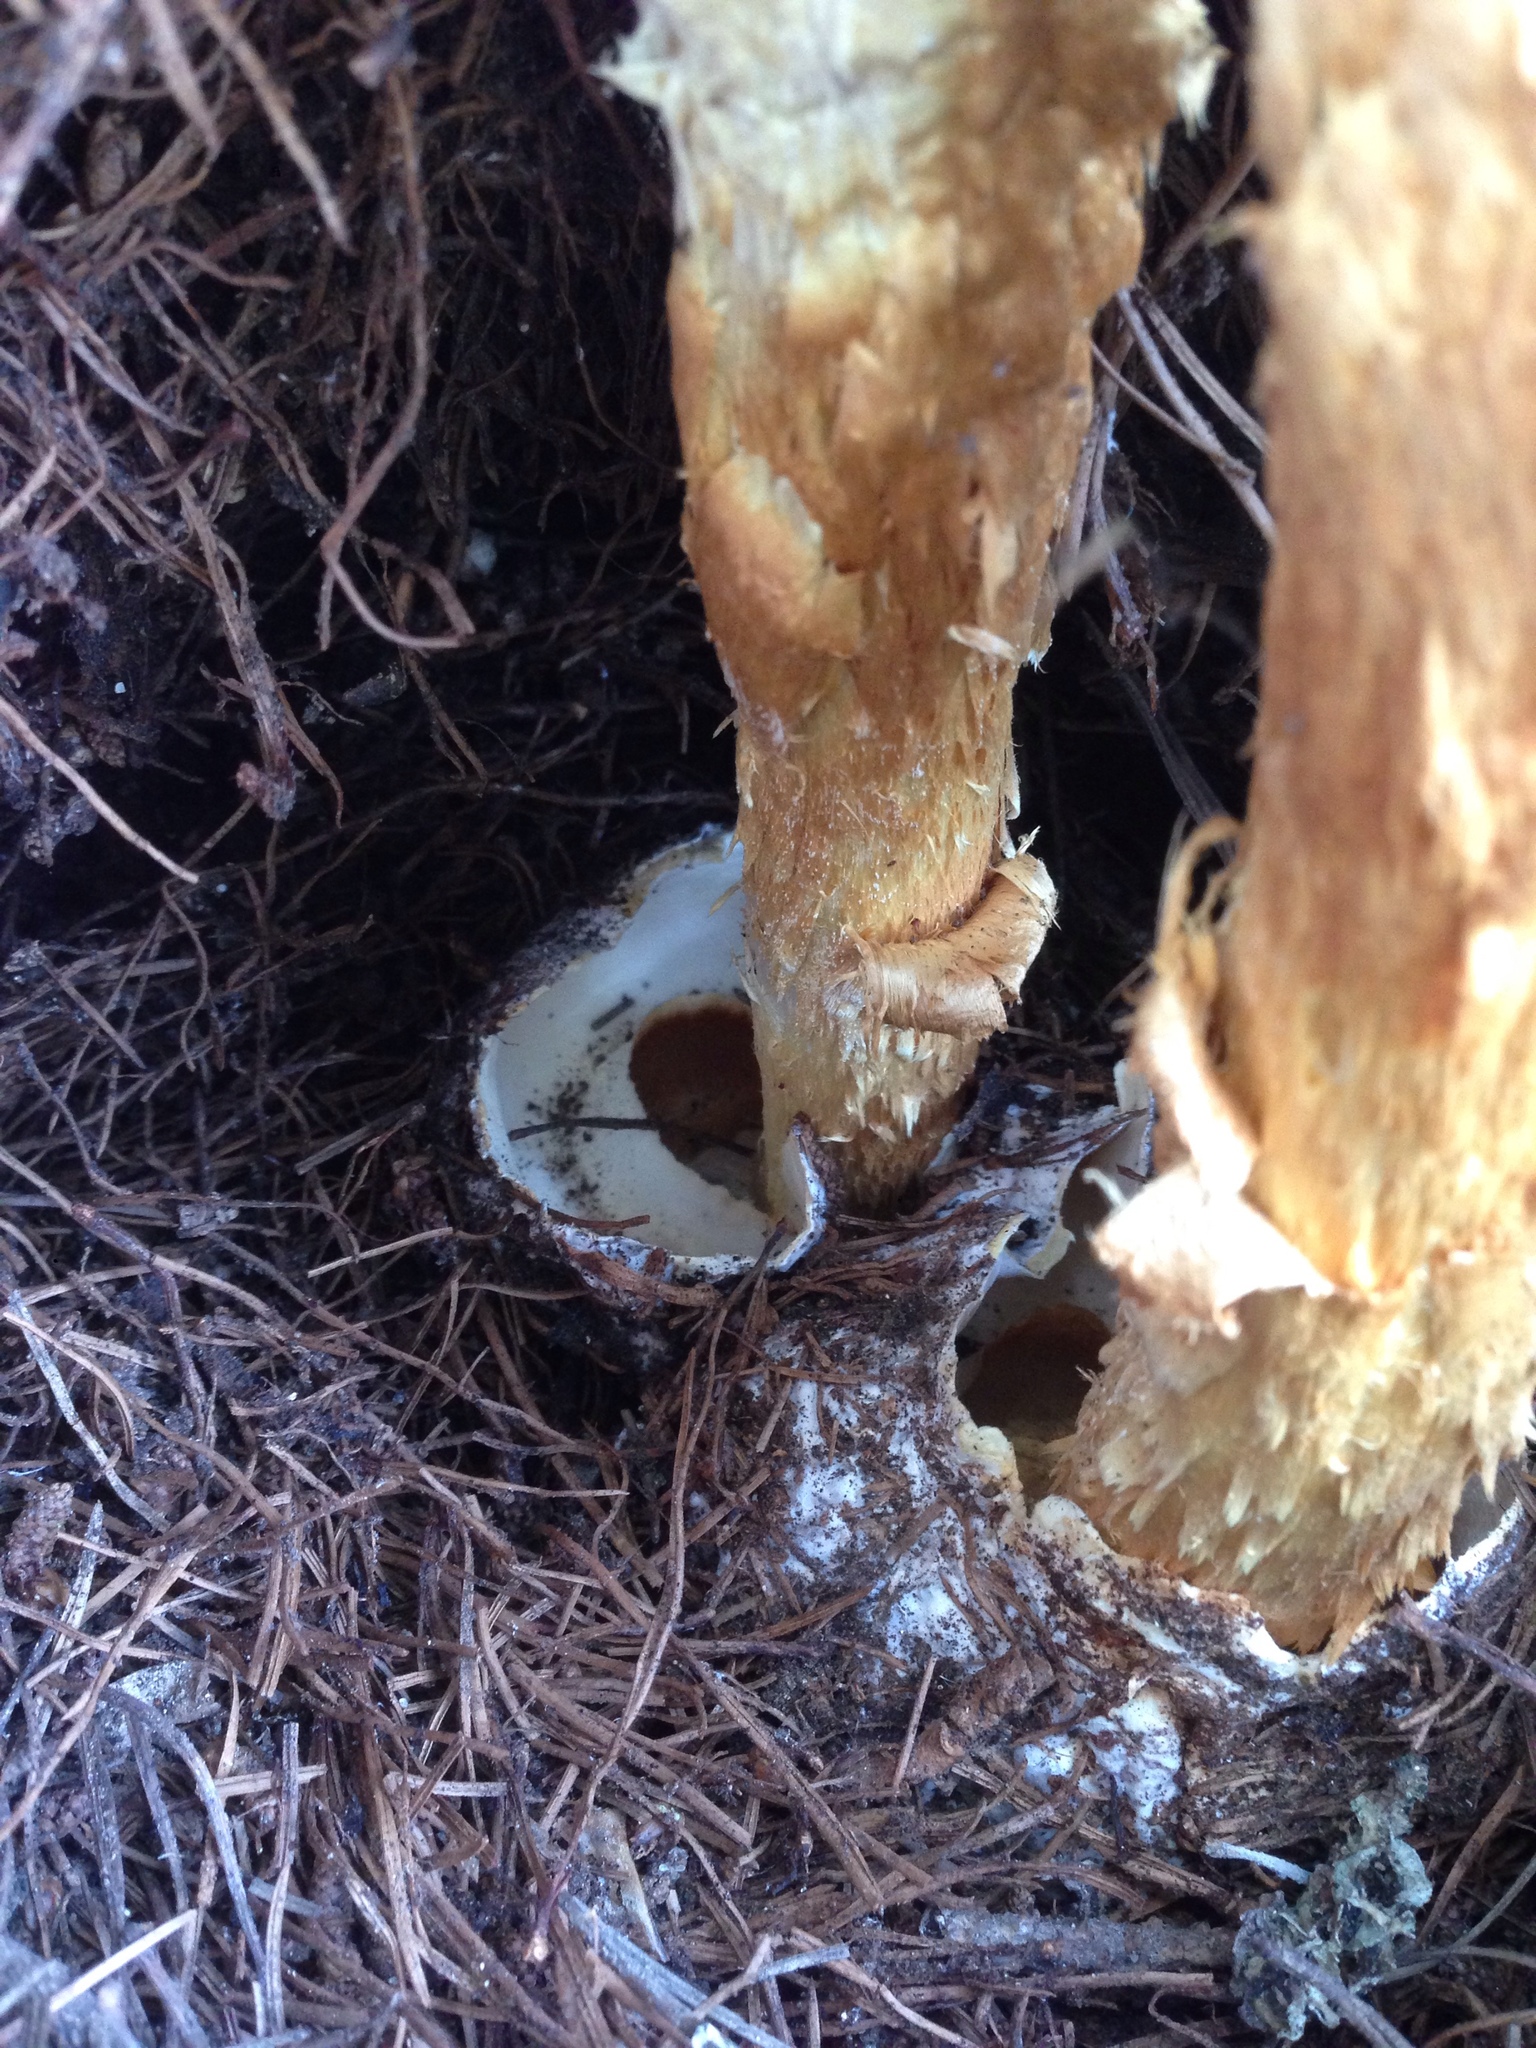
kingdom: Fungi
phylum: Basidiomycota
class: Agaricomycetes
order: Agaricales
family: Agaricaceae
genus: Battarrea
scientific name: Battarrea phalloides
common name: Sandy stiltball
